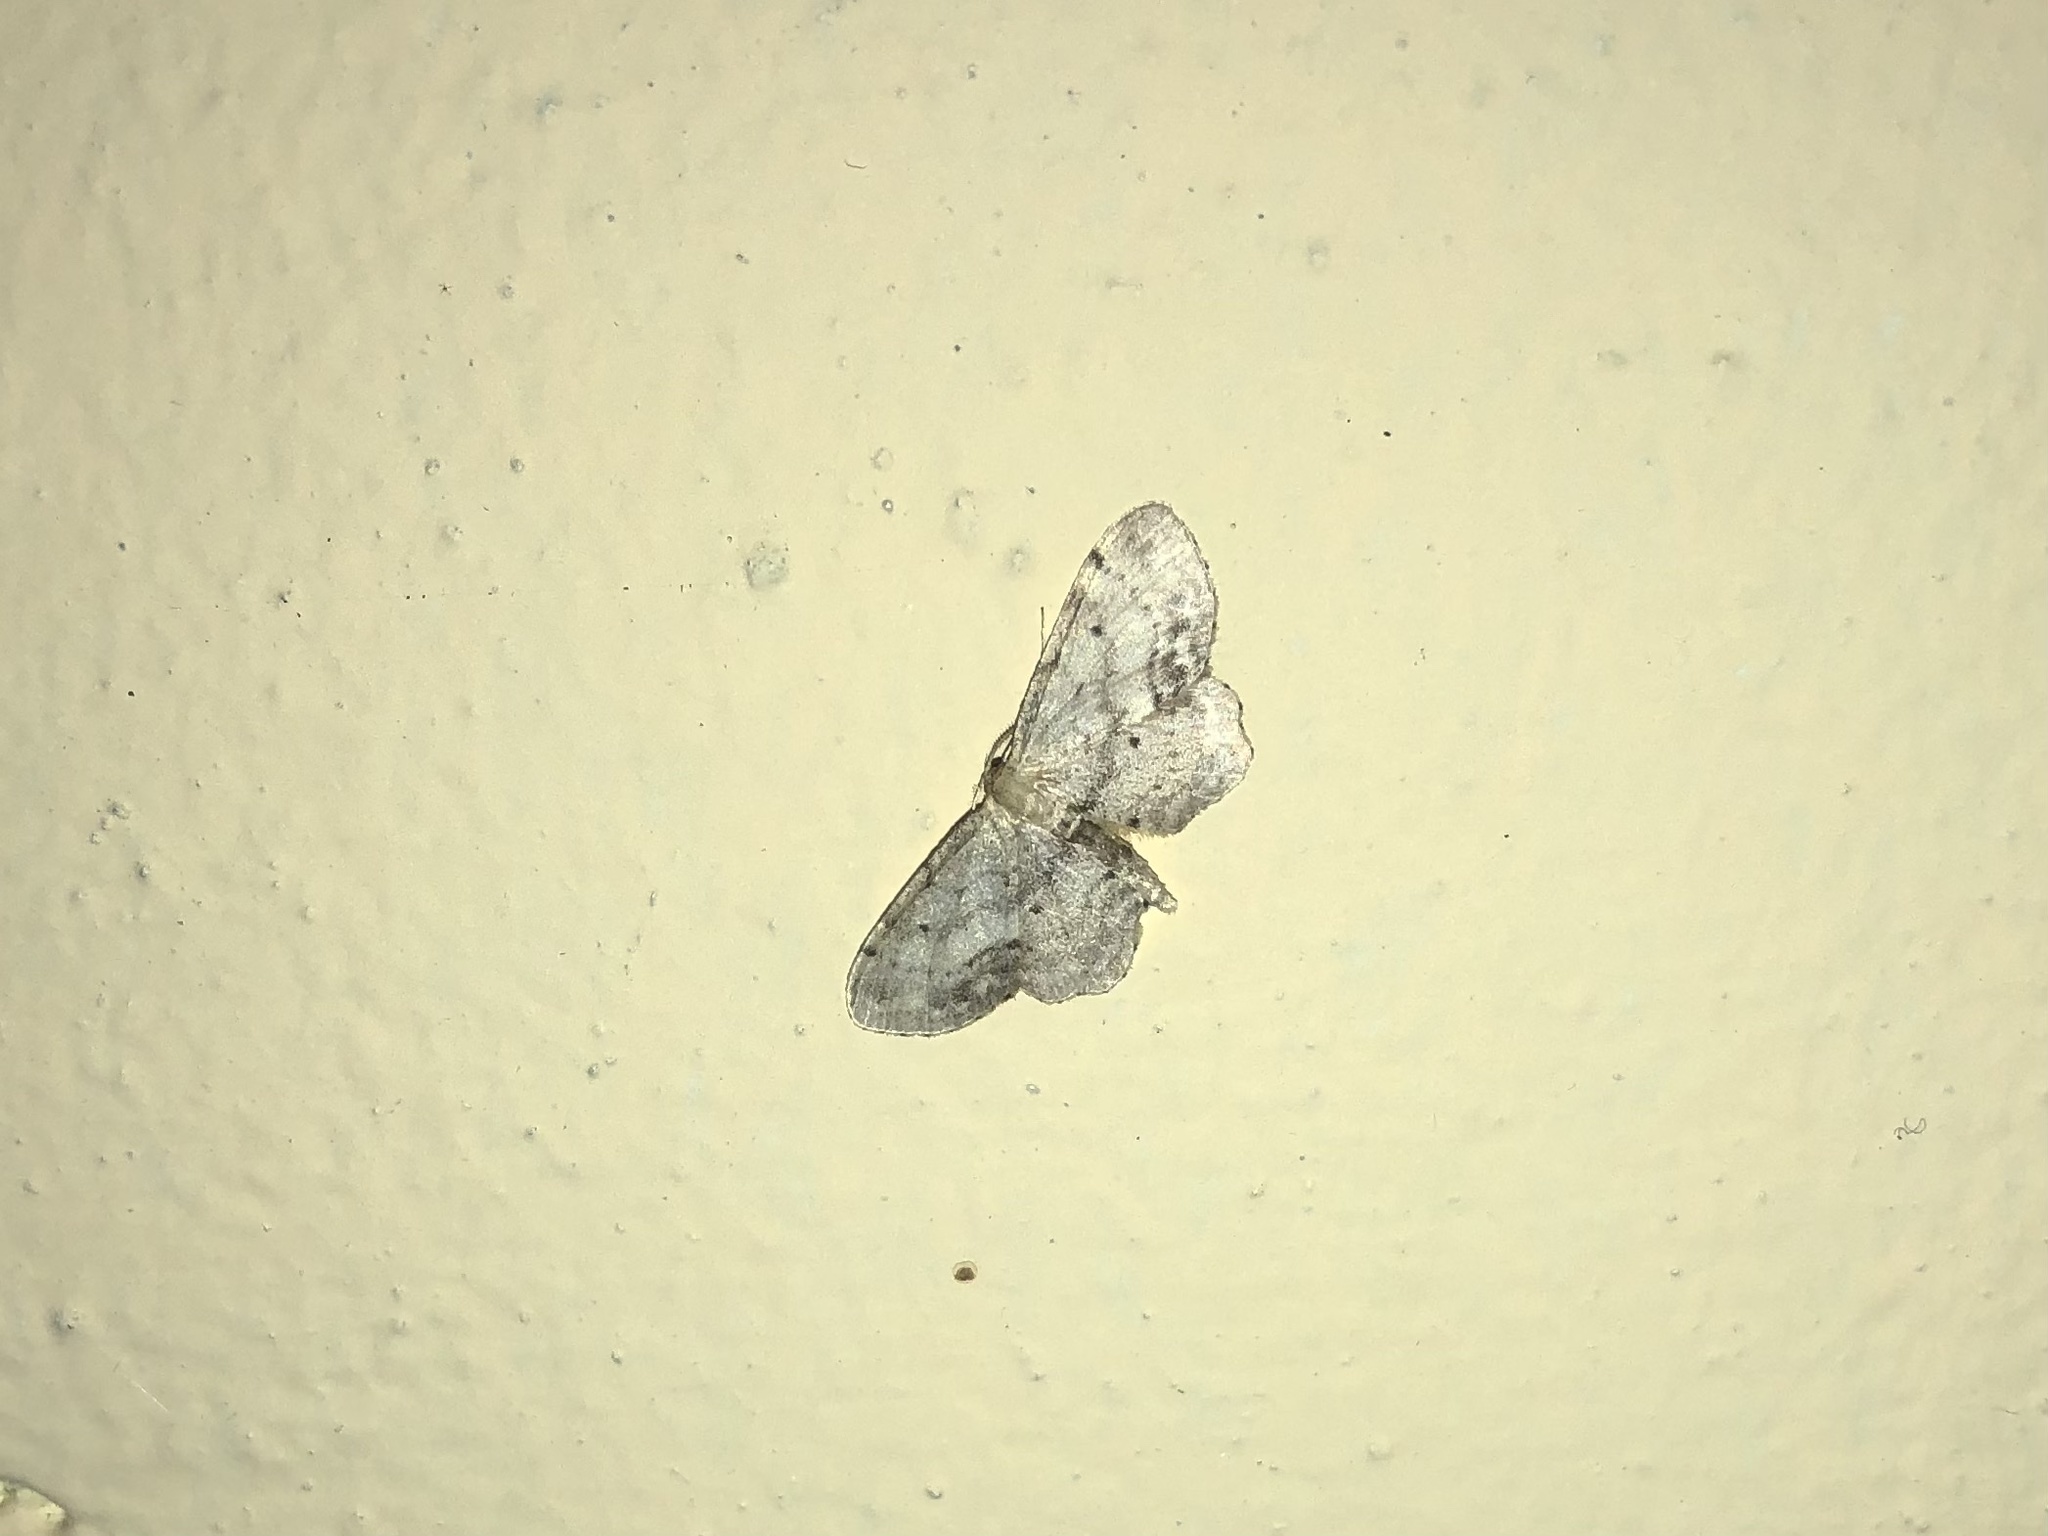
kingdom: Animalia
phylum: Arthropoda
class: Insecta
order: Lepidoptera
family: Geometridae
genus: Idaea
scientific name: Idaea dimidiata
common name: Single-dotted wave
